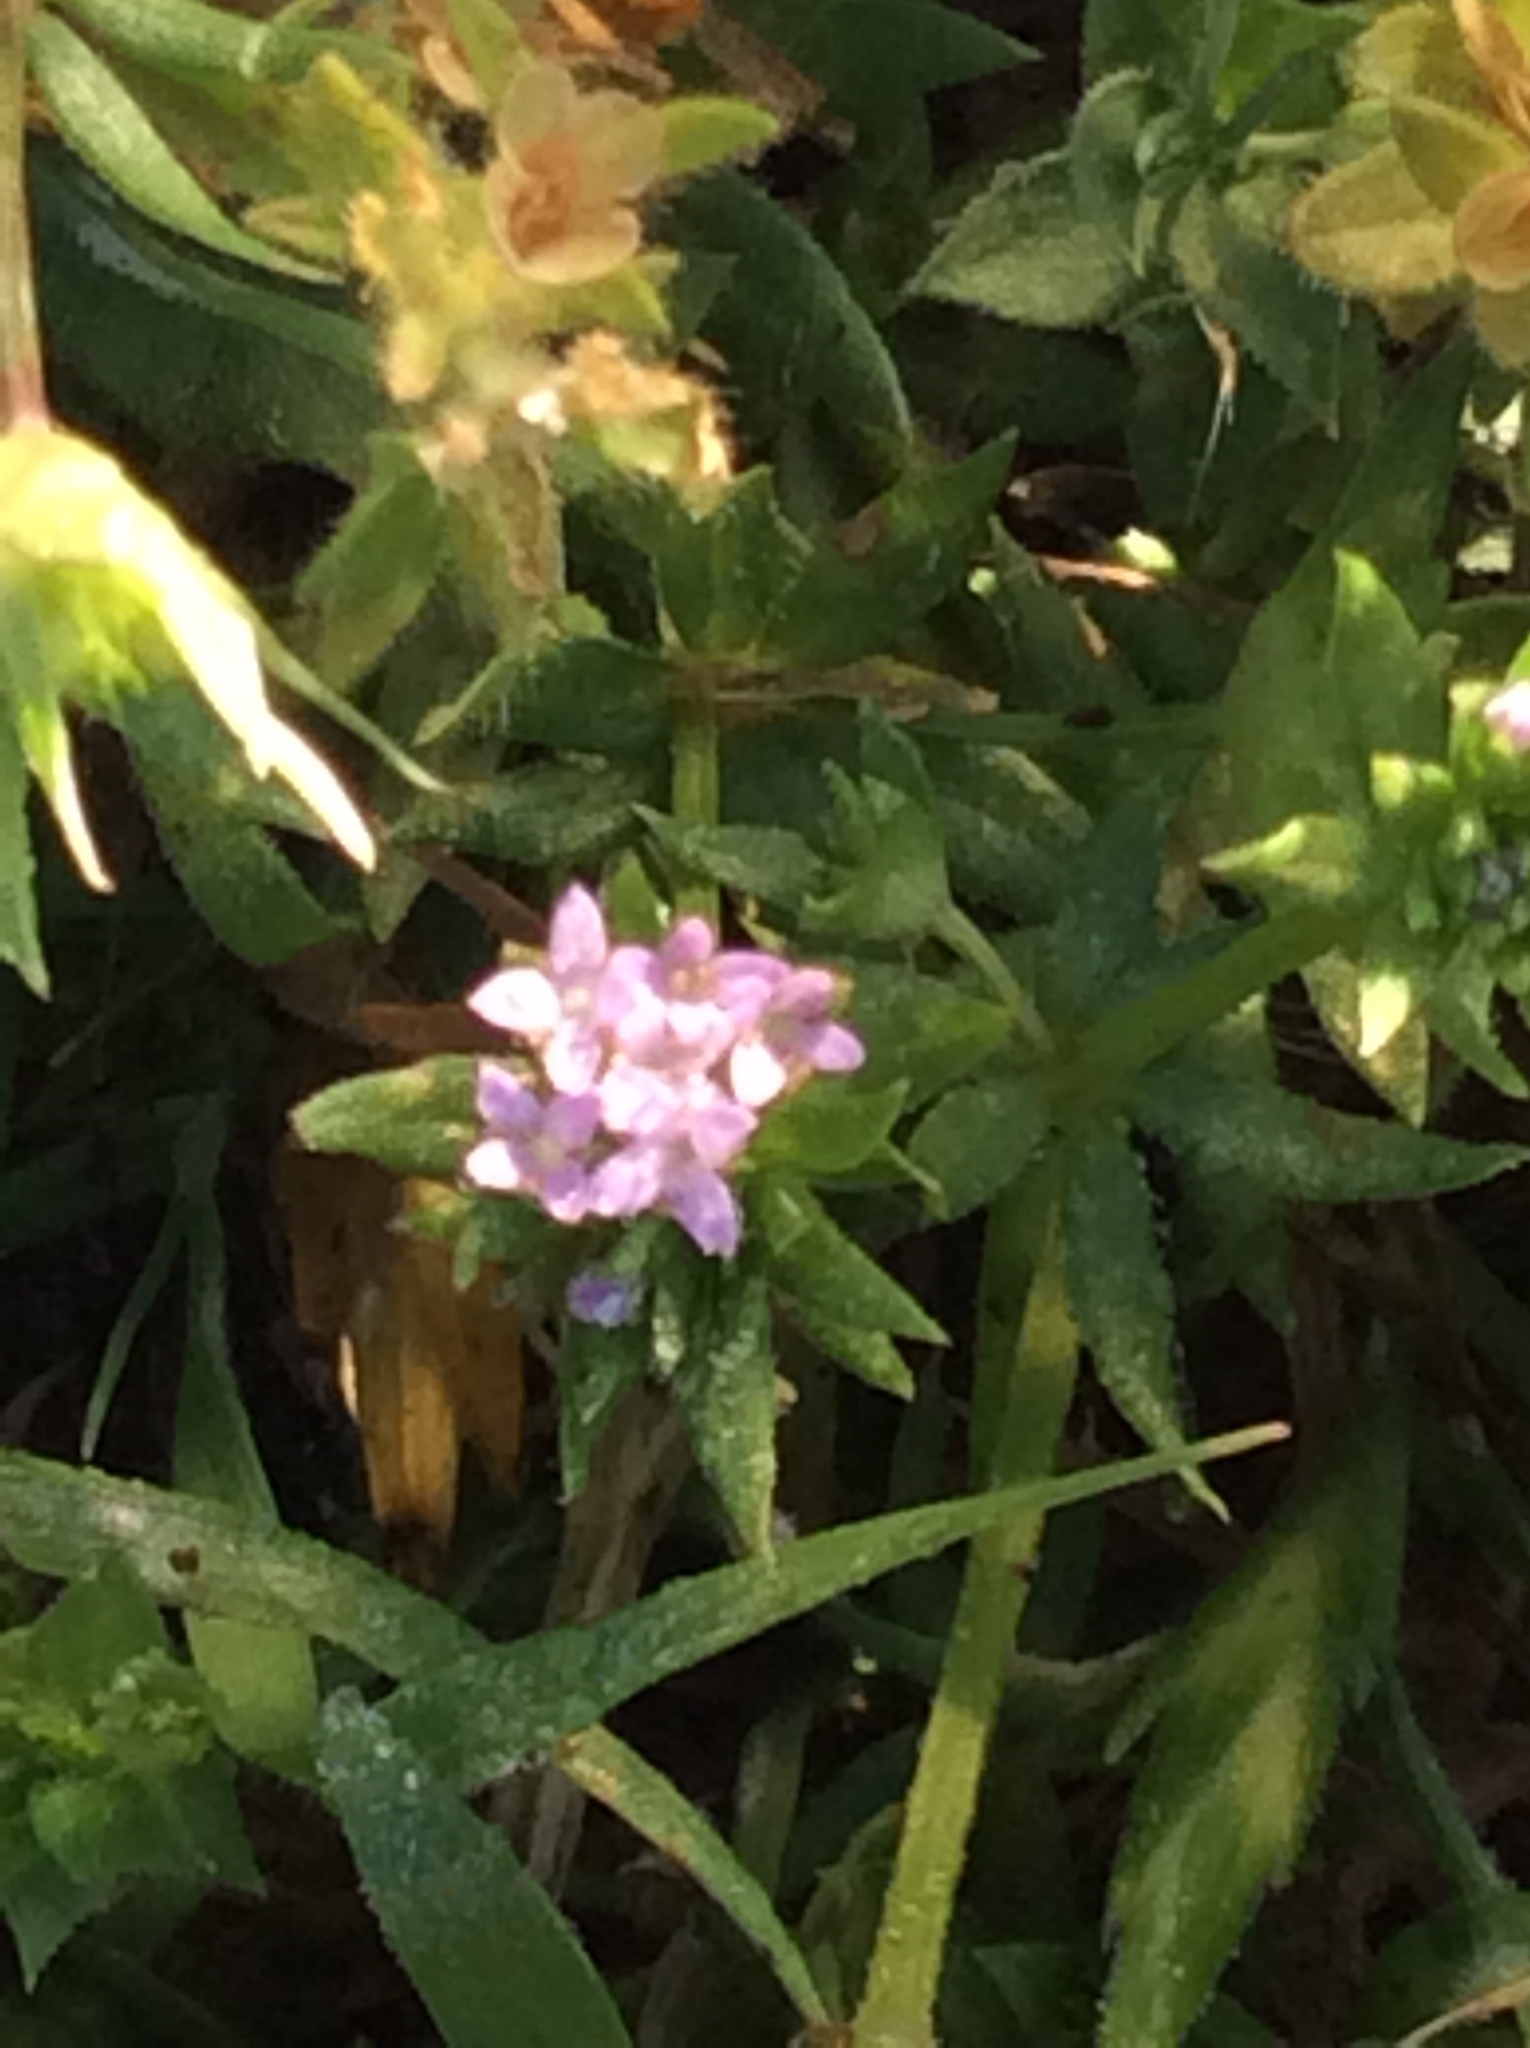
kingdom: Plantae
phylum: Tracheophyta
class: Magnoliopsida
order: Gentianales
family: Rubiaceae
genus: Sherardia
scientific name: Sherardia arvensis
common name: Field madder
